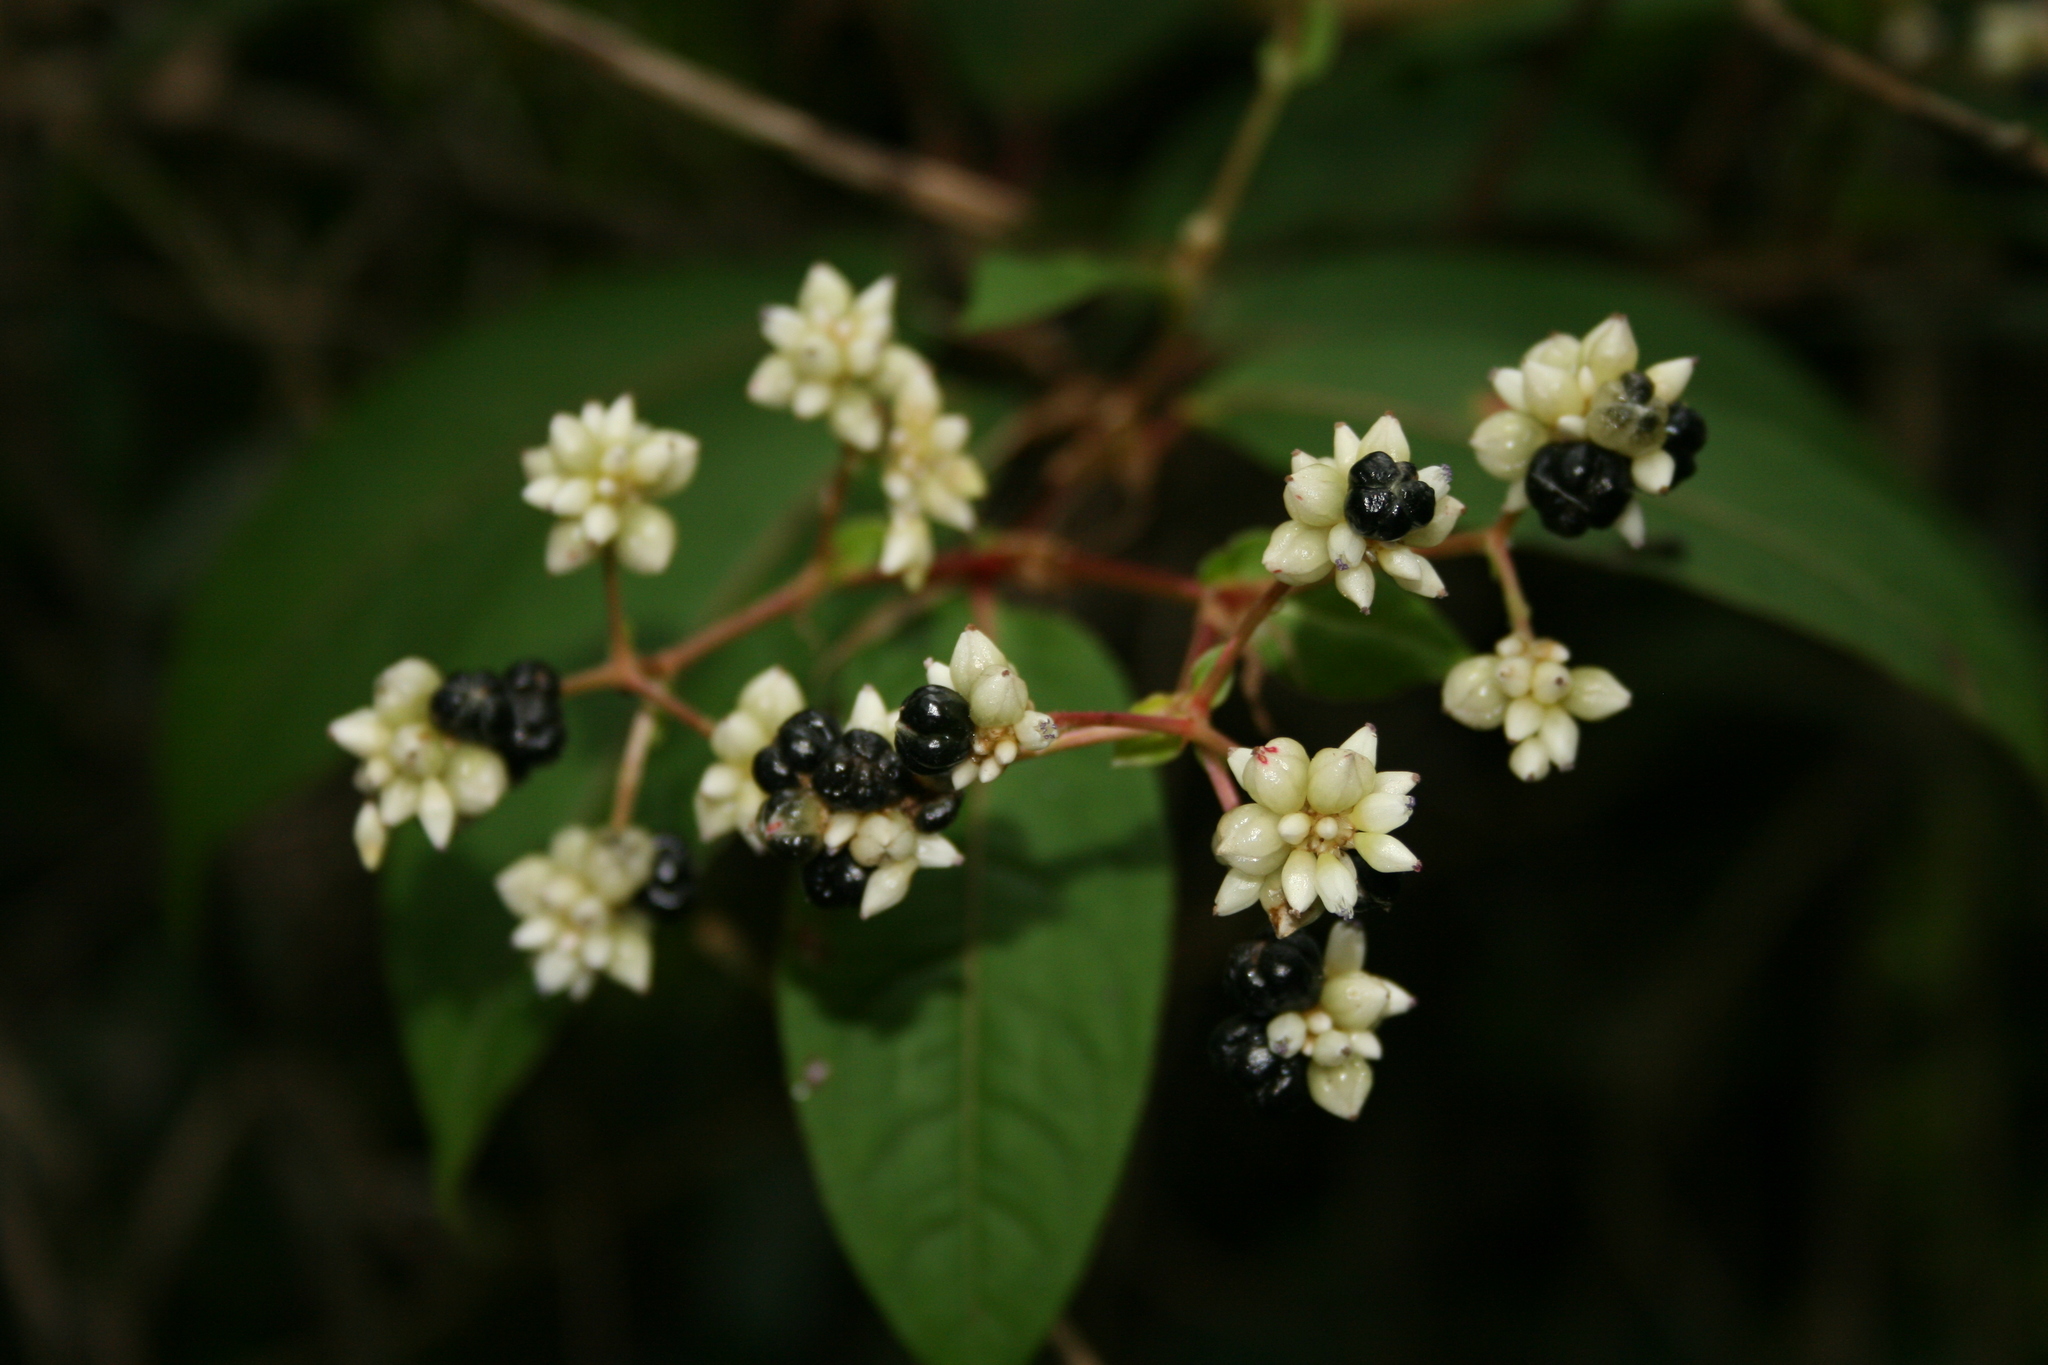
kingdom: Plantae
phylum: Tracheophyta
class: Magnoliopsida
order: Caryophyllales
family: Polygonaceae
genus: Persicaria
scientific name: Persicaria chinensis
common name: Chinese knotweed
